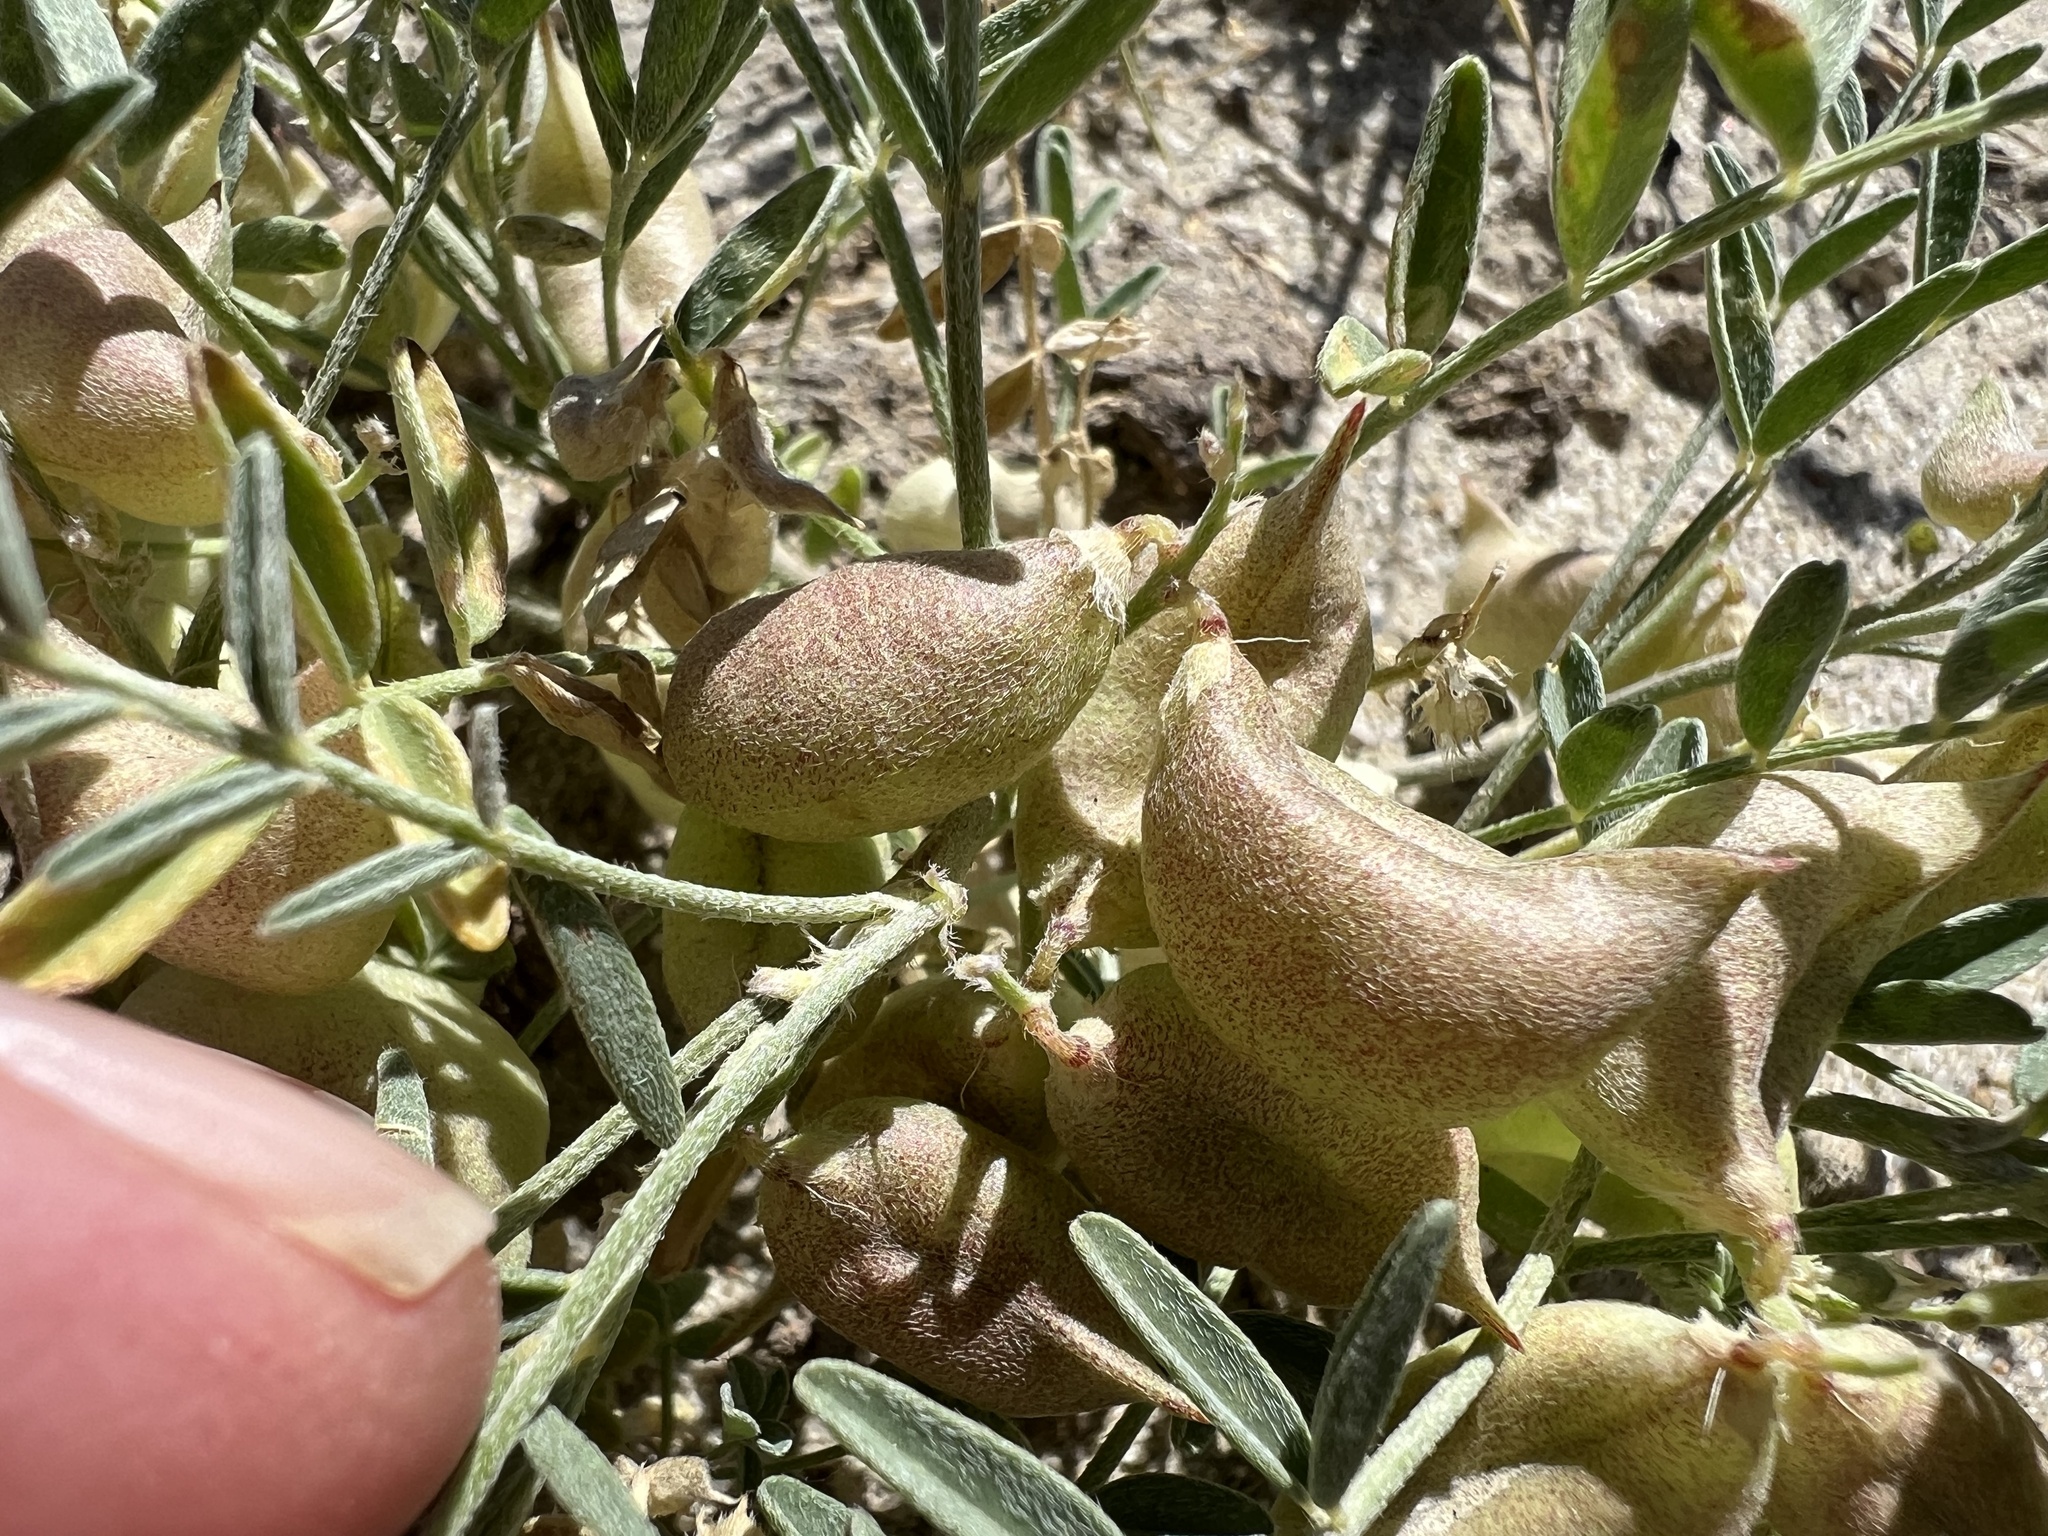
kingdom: Plantae
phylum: Tracheophyta
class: Magnoliopsida
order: Fabales
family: Fabaceae
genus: Astragalus
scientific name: Astragalus geyeri
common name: Geyer's milkvetch
